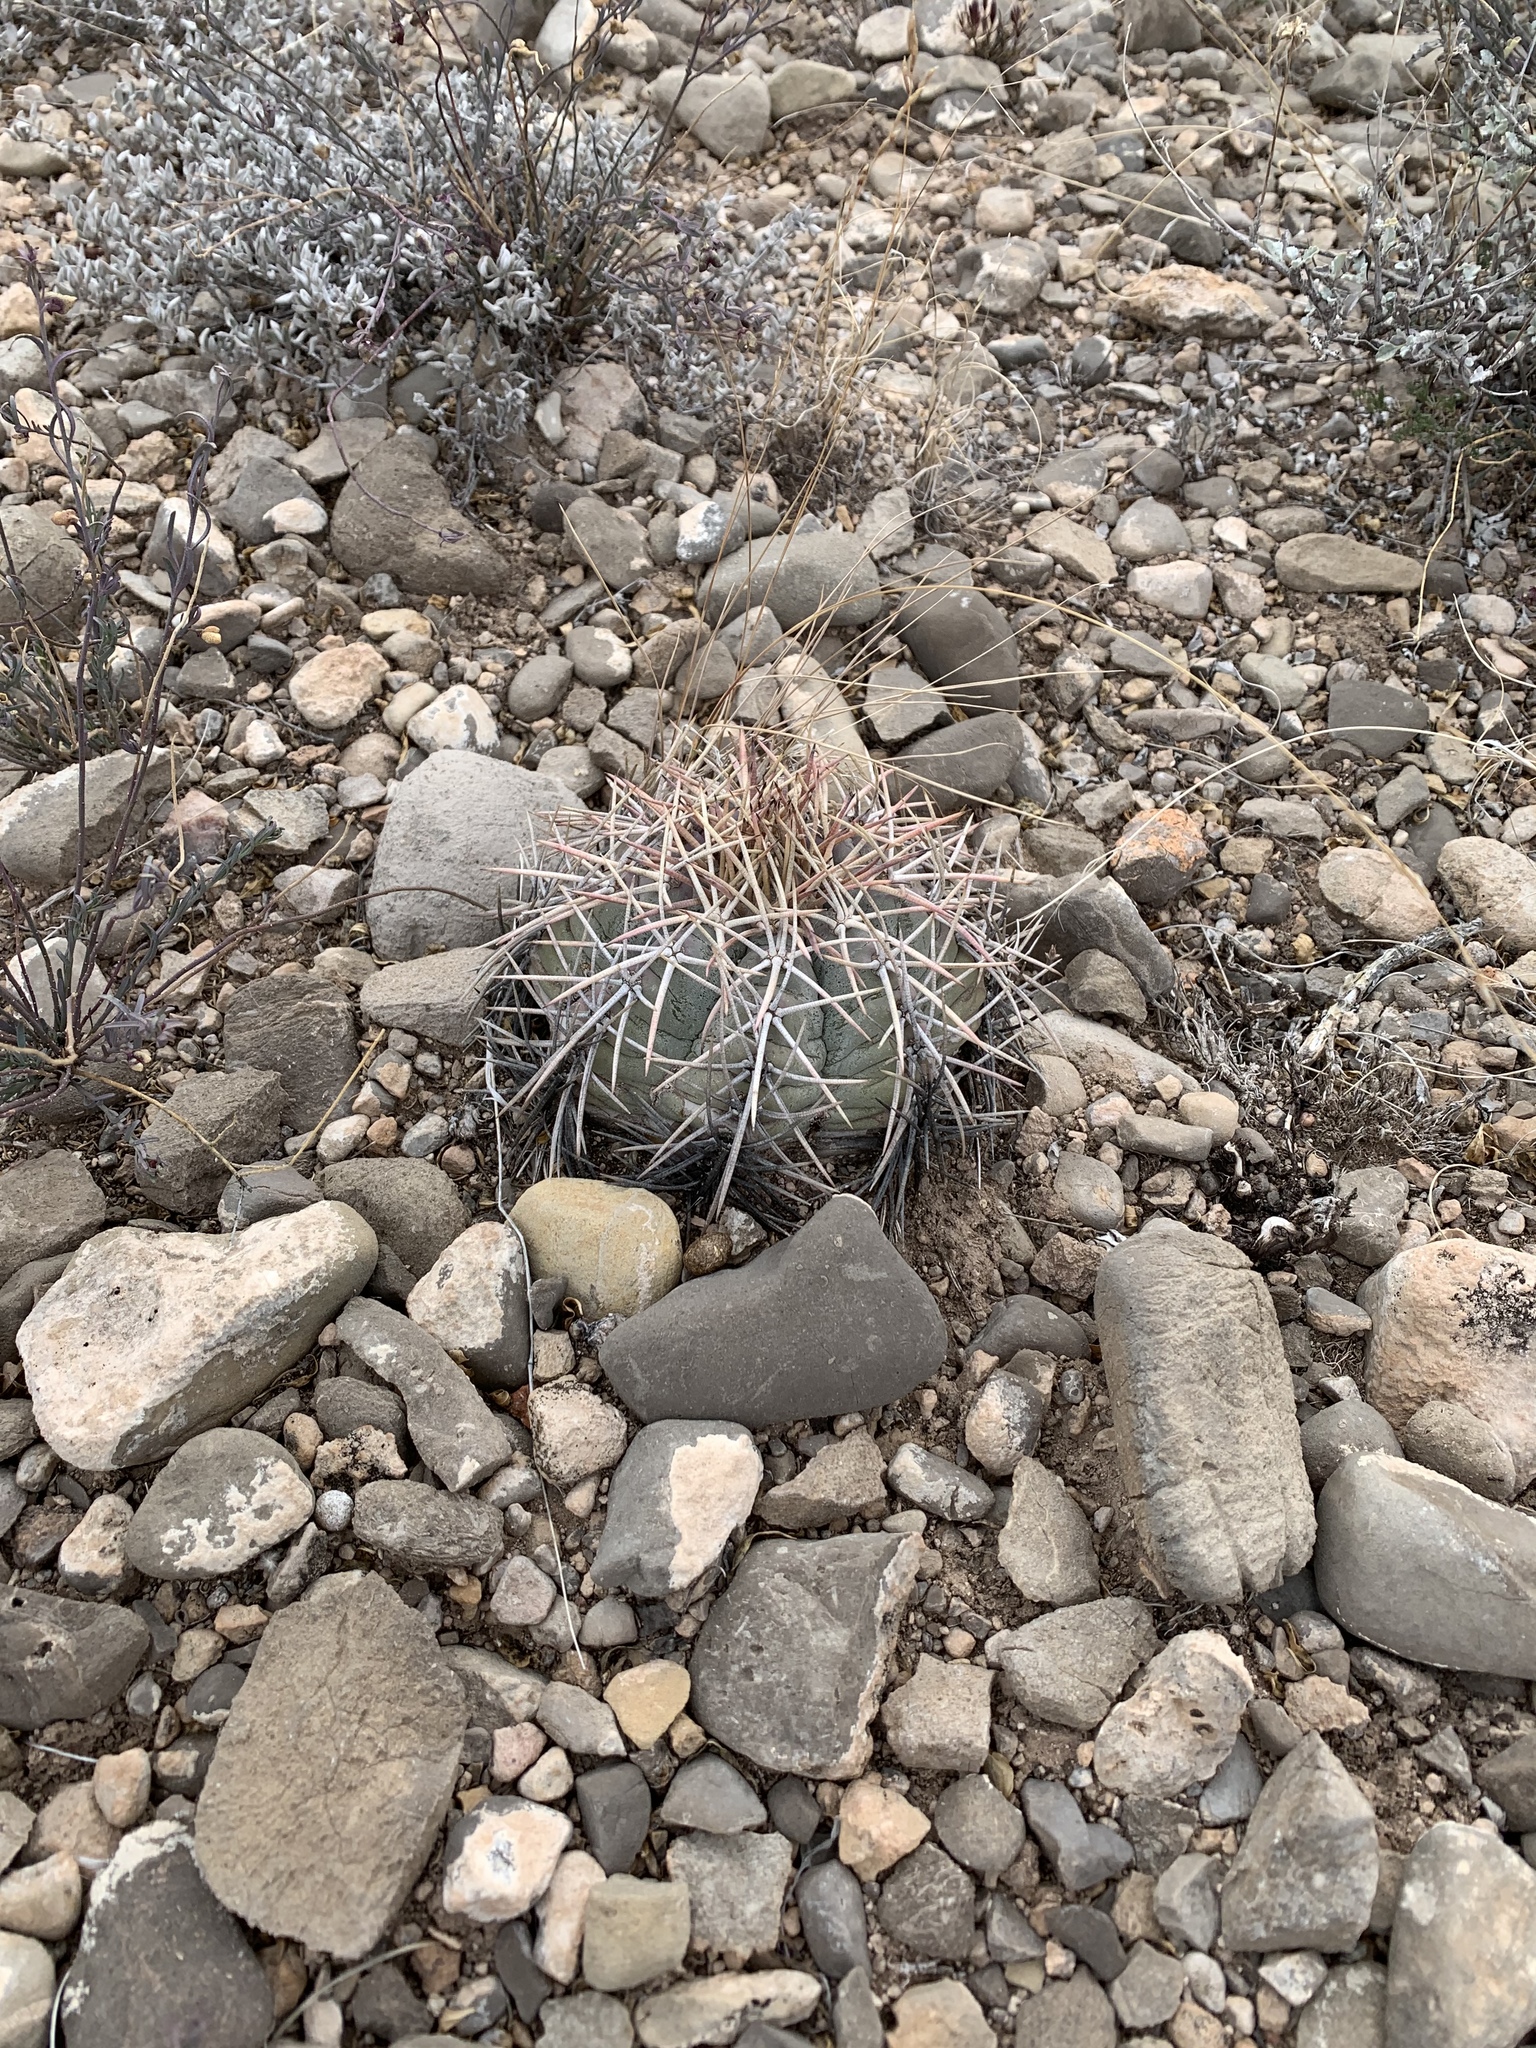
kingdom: Plantae
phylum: Tracheophyta
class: Magnoliopsida
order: Caryophyllales
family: Cactaceae
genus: Echinocactus
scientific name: Echinocactus horizonthalonius
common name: Devilshead
